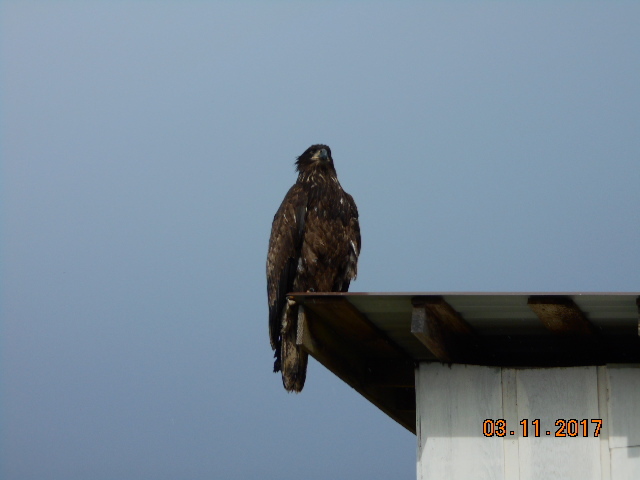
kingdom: Animalia
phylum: Chordata
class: Aves
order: Accipitriformes
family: Accipitridae
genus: Haliaeetus
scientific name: Haliaeetus leucocephalus
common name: Bald eagle
